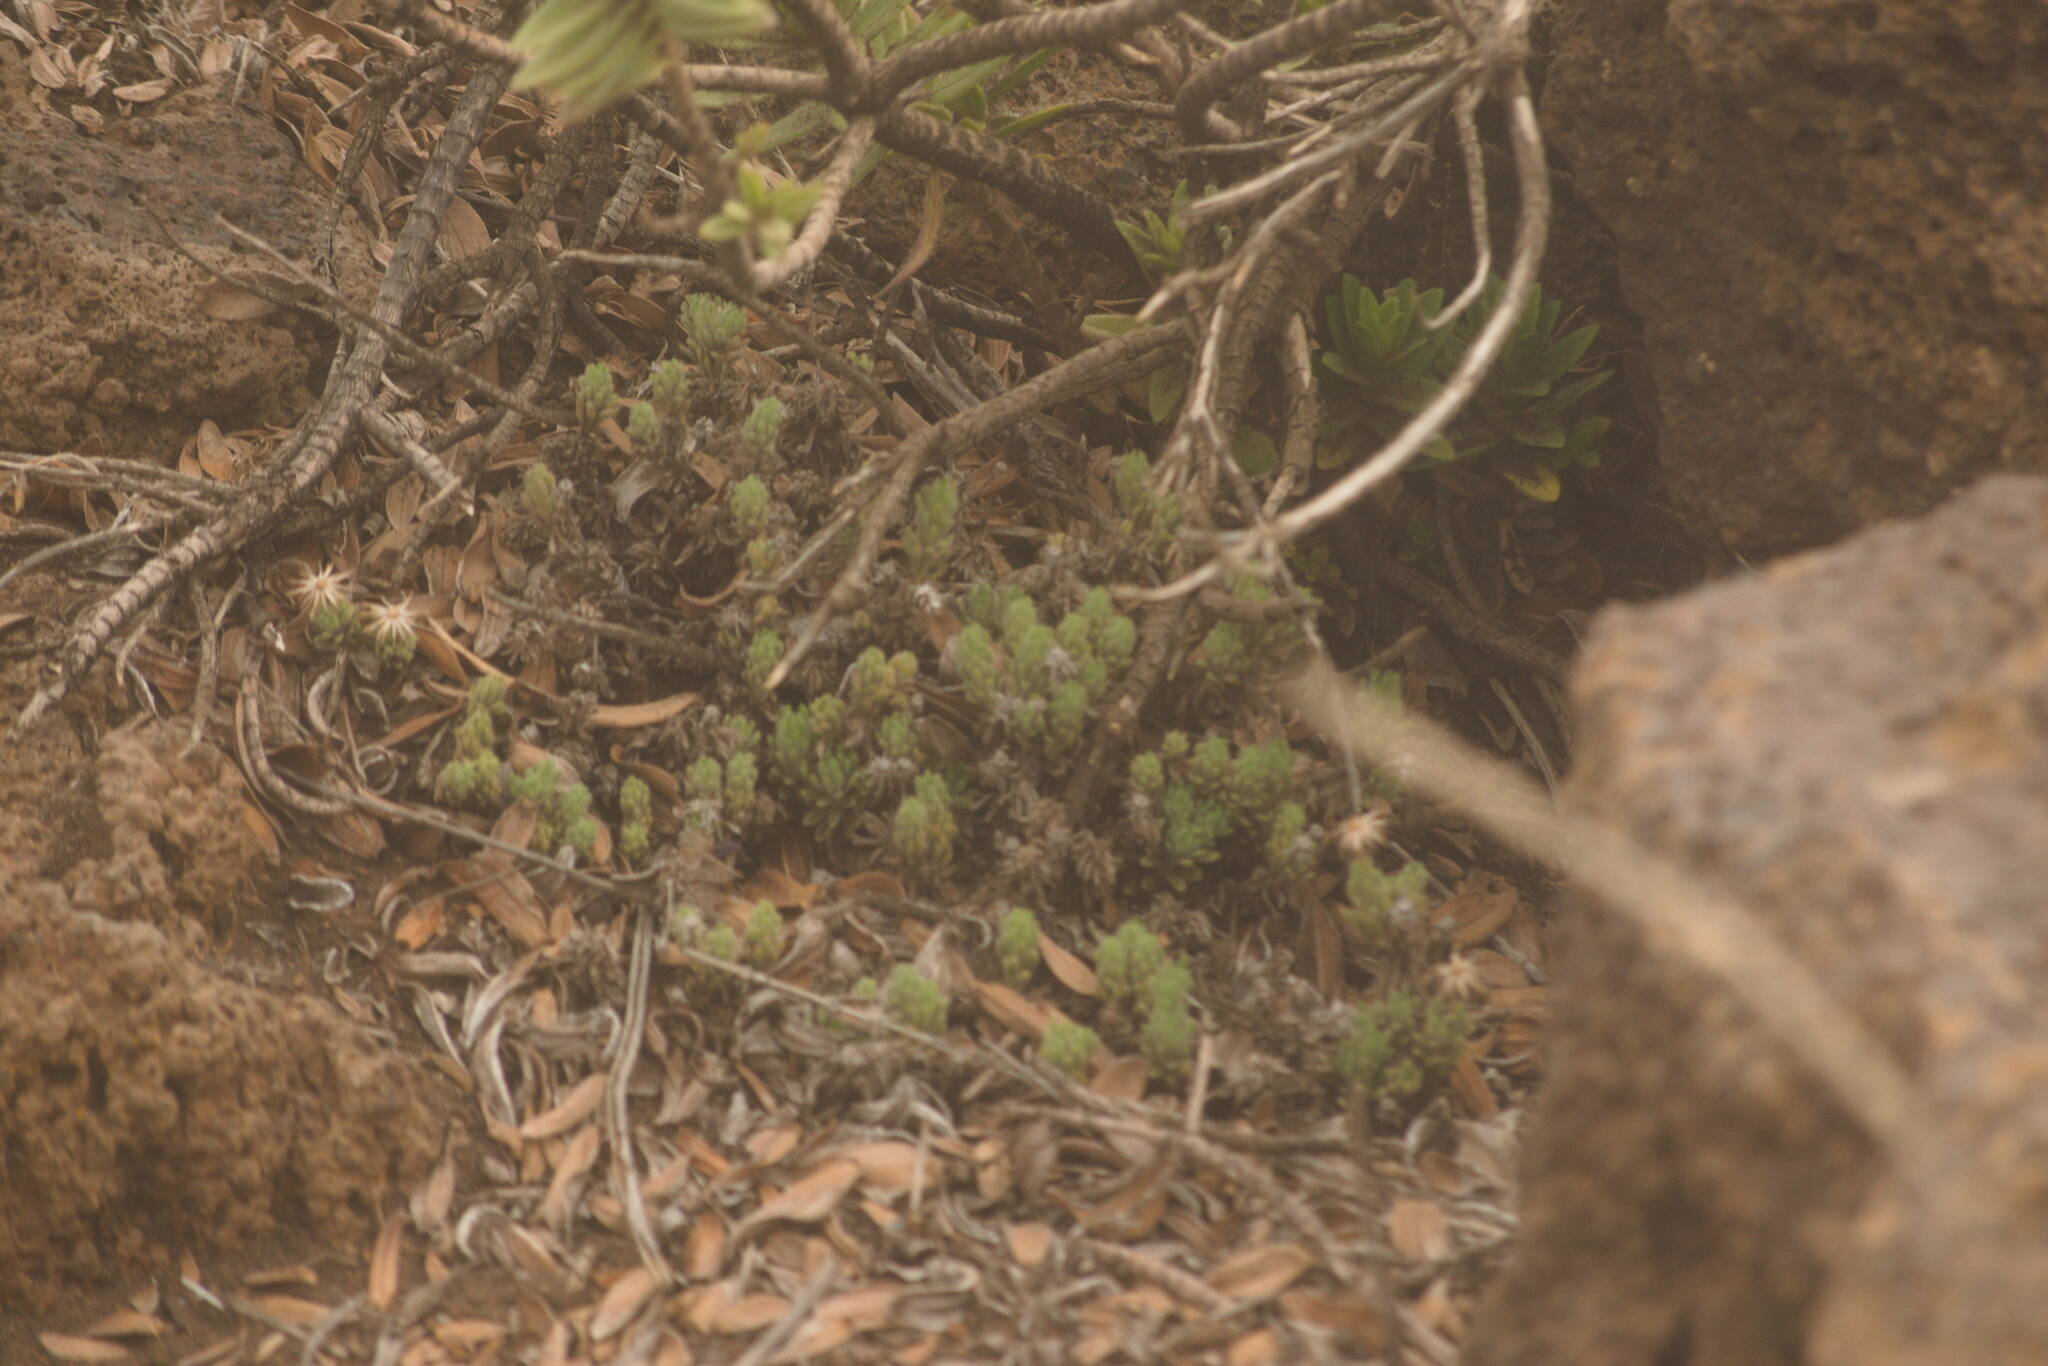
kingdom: Plantae
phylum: Tracheophyta
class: Magnoliopsida
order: Asterales
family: Asteraceae
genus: Tetramolopium
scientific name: Tetramolopium humile
